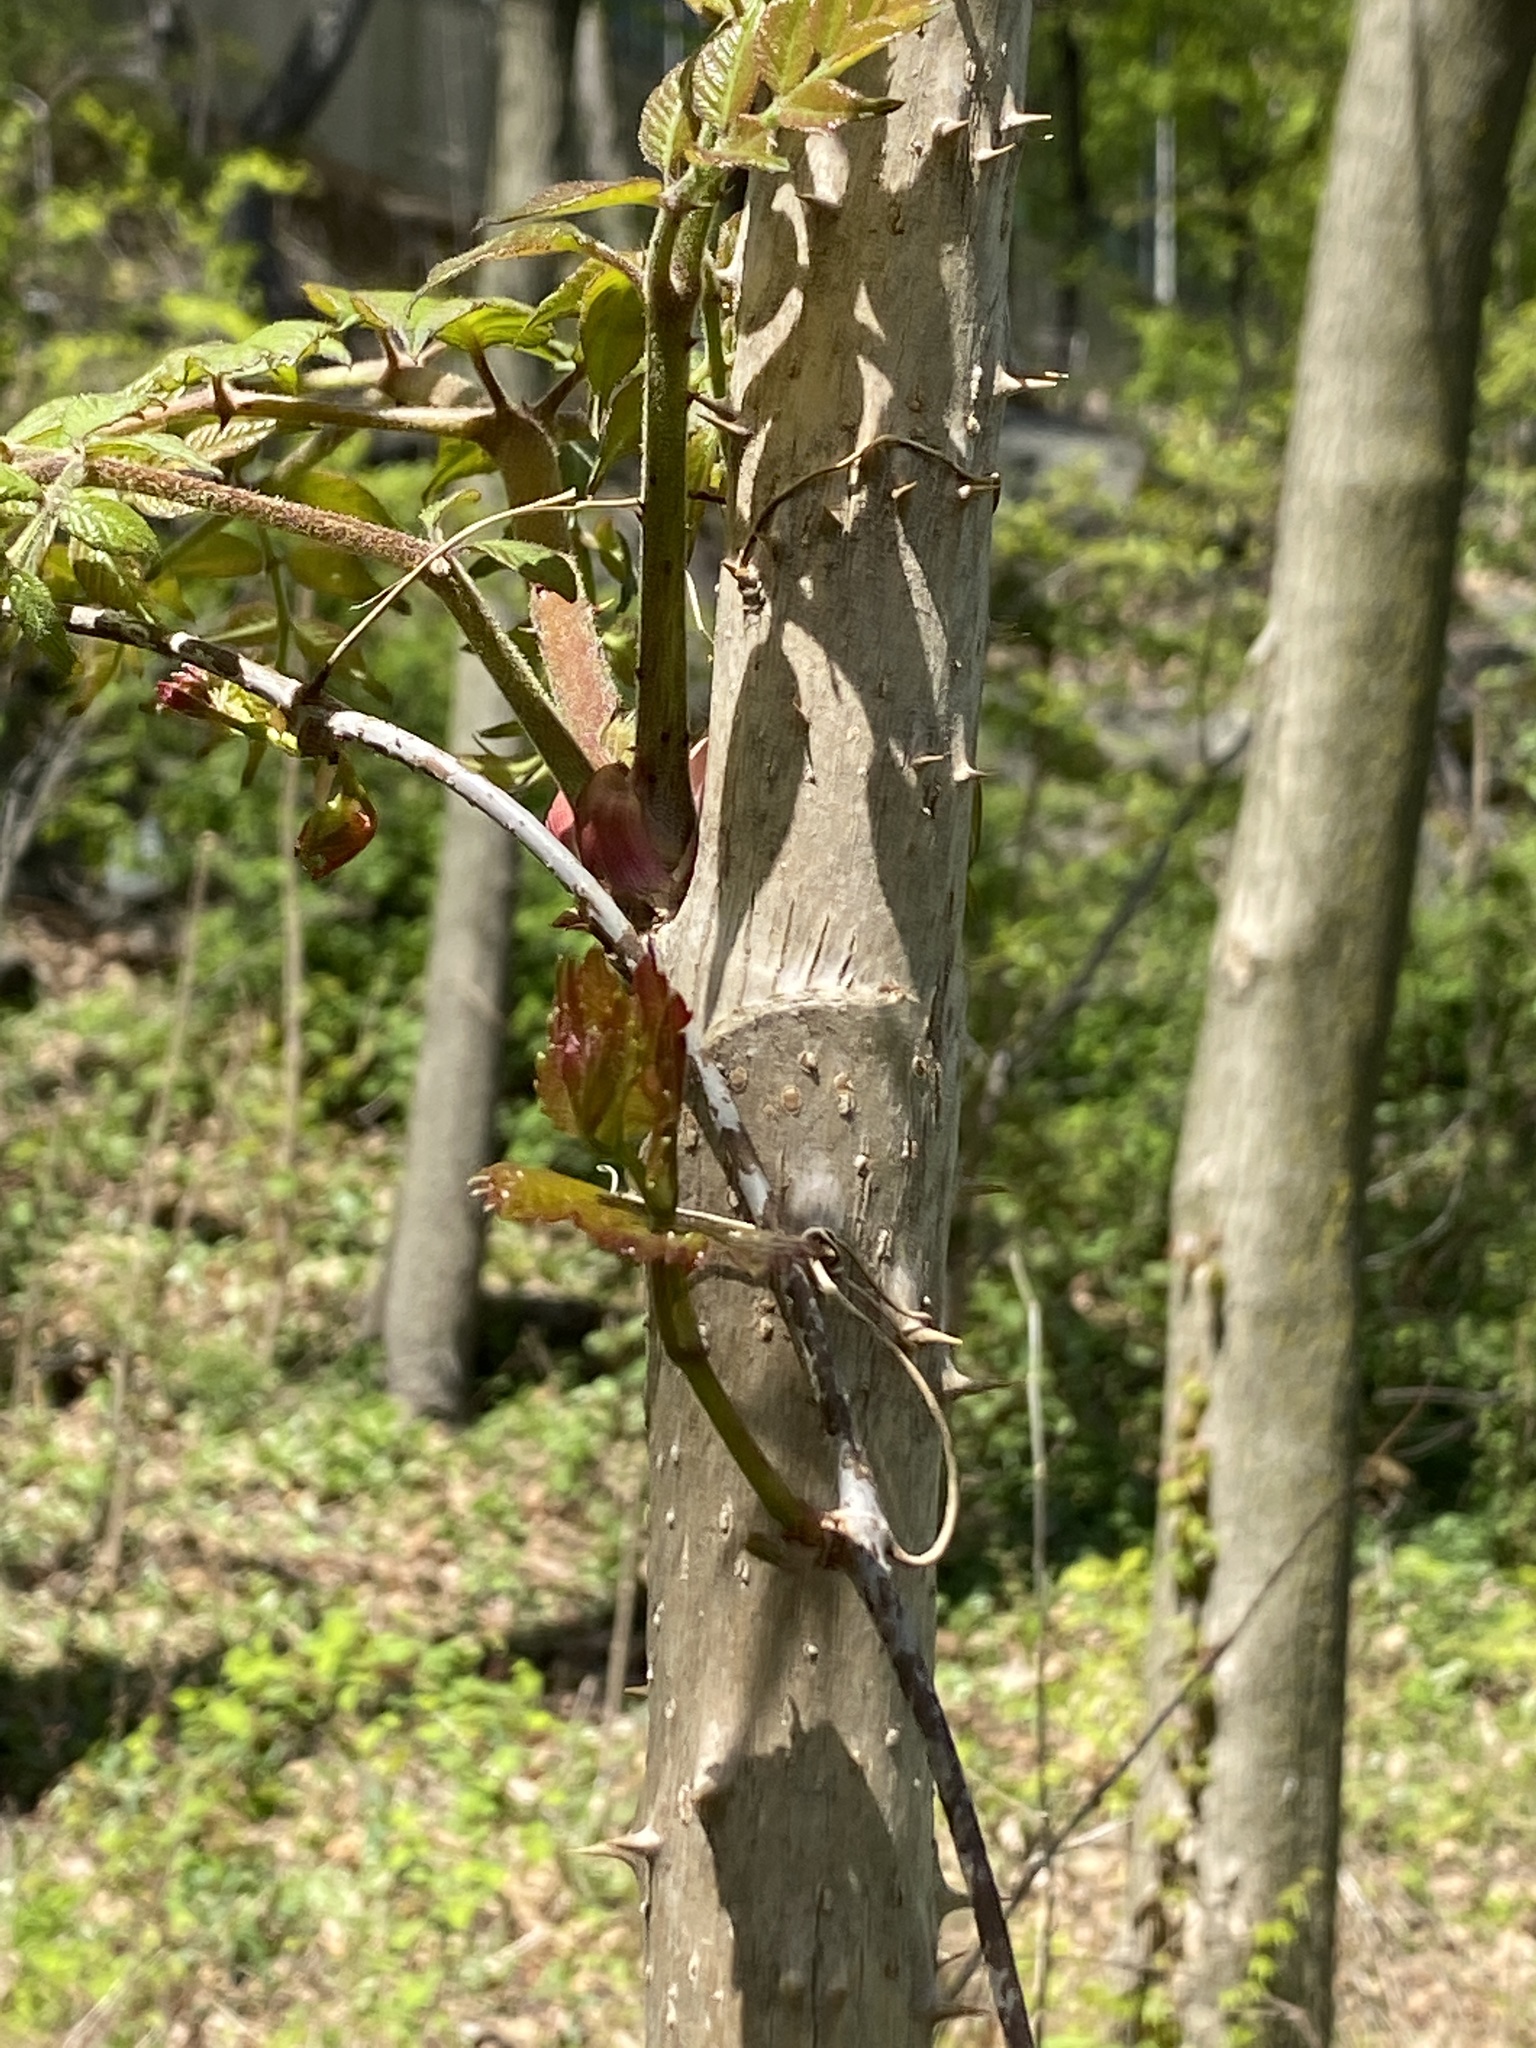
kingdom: Plantae
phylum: Tracheophyta
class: Magnoliopsida
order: Apiales
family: Araliaceae
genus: Aralia
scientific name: Aralia elata
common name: Japanese angelica-tree
